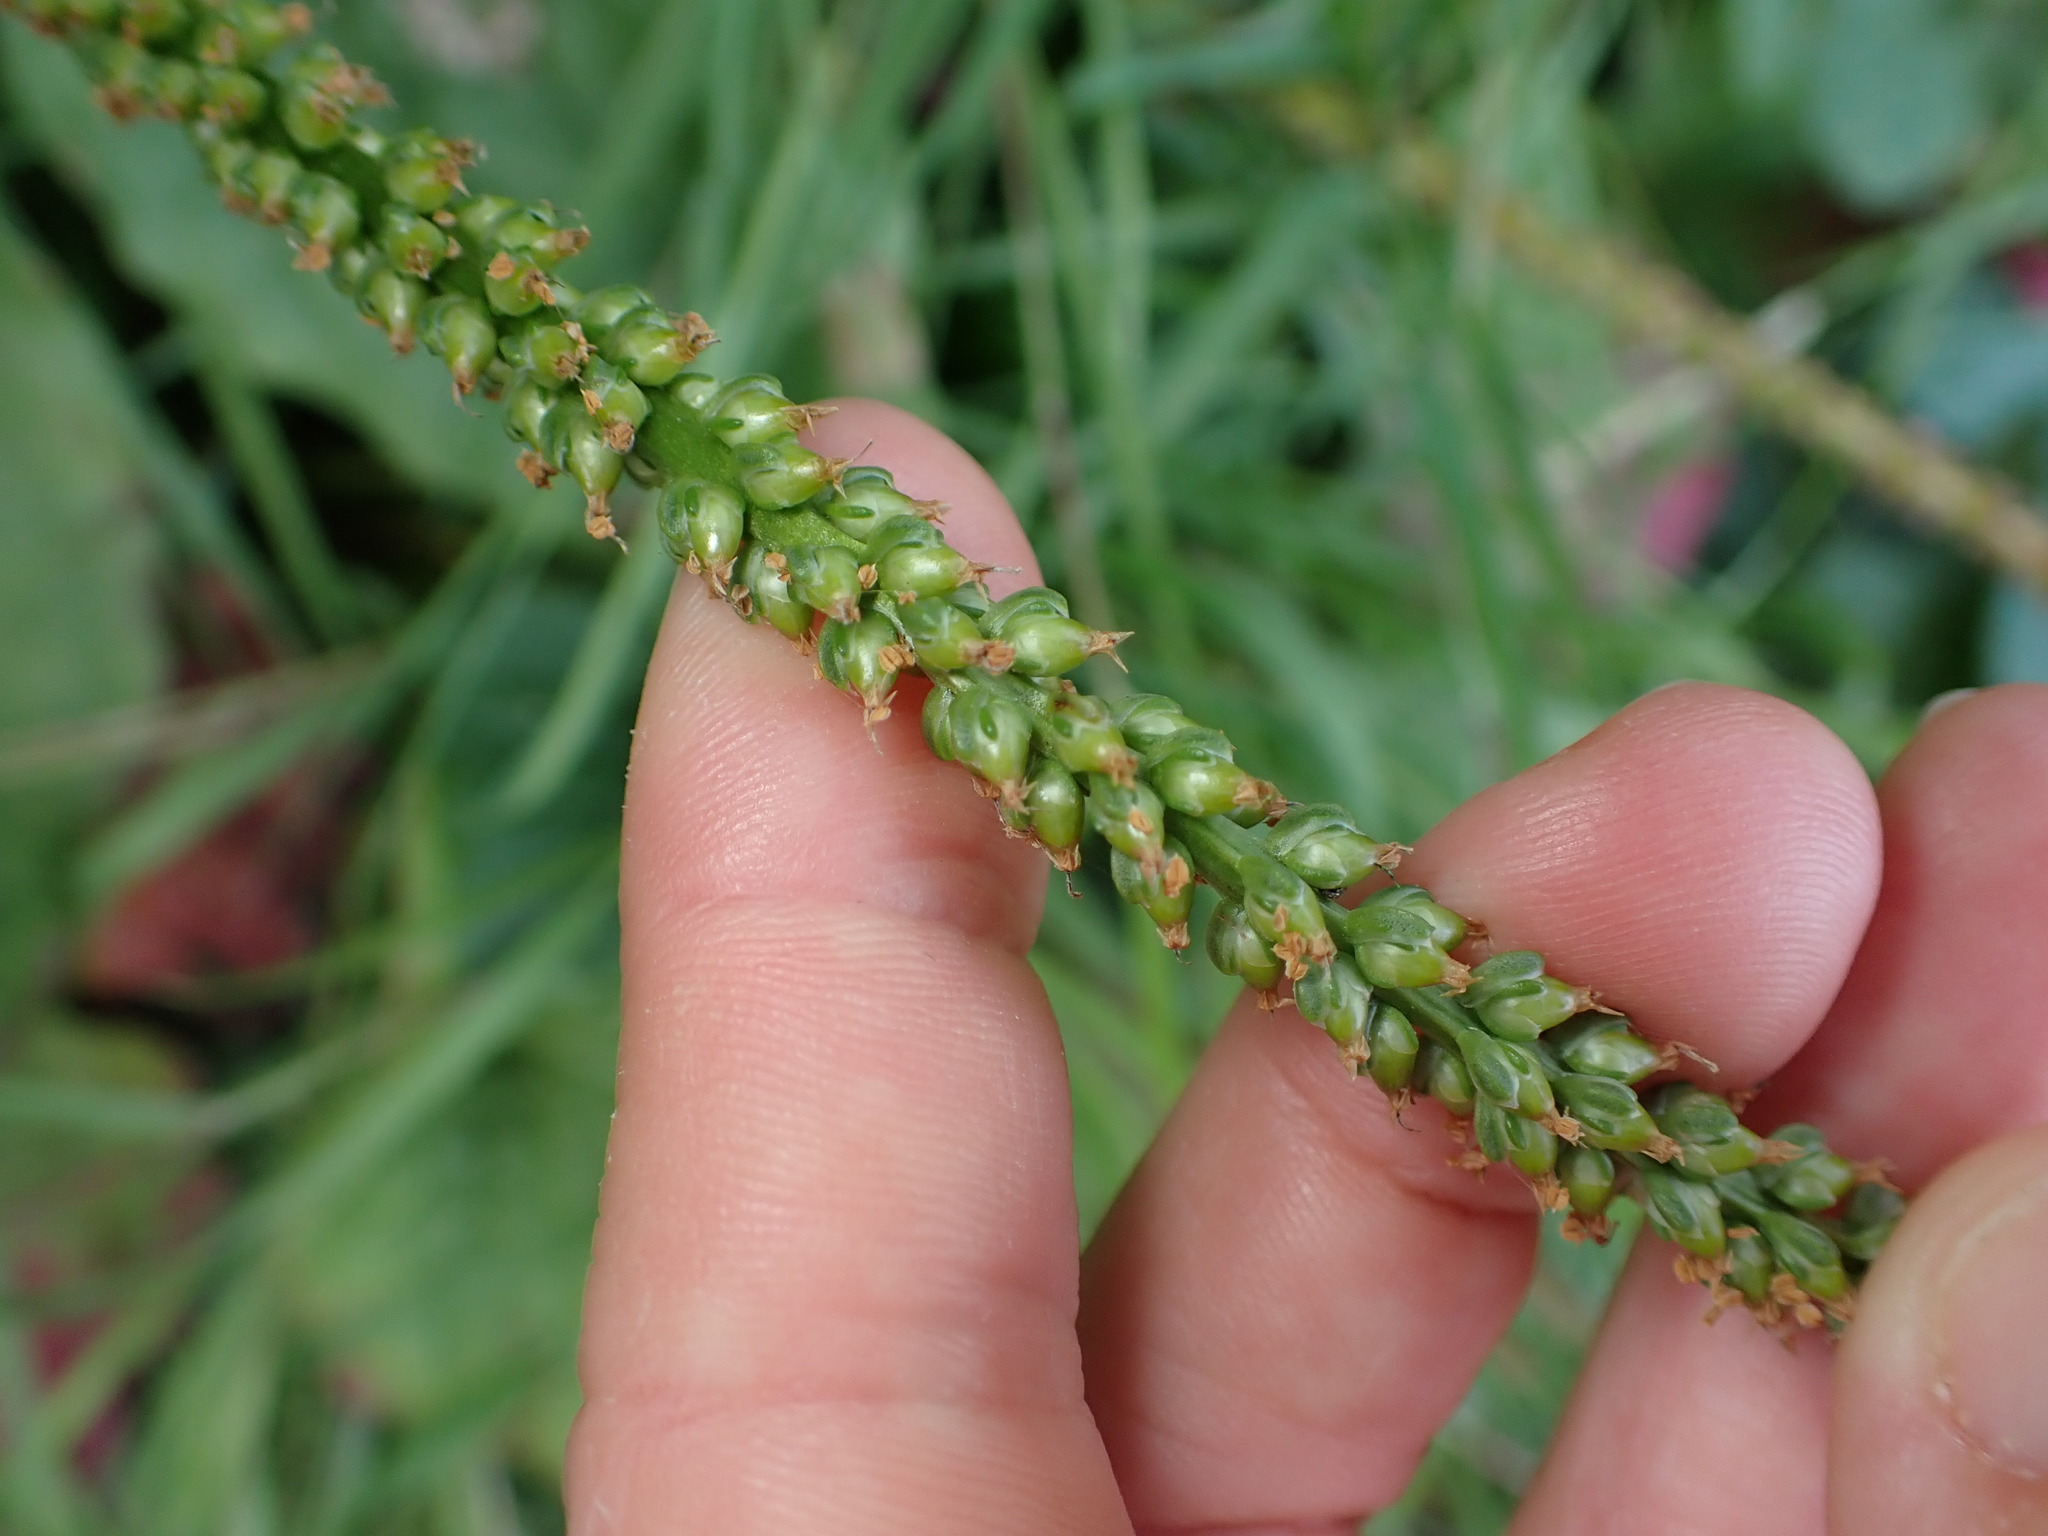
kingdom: Plantae
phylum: Tracheophyta
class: Magnoliopsida
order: Lamiales
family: Plantaginaceae
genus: Plantago
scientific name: Plantago major
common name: Common plantain
